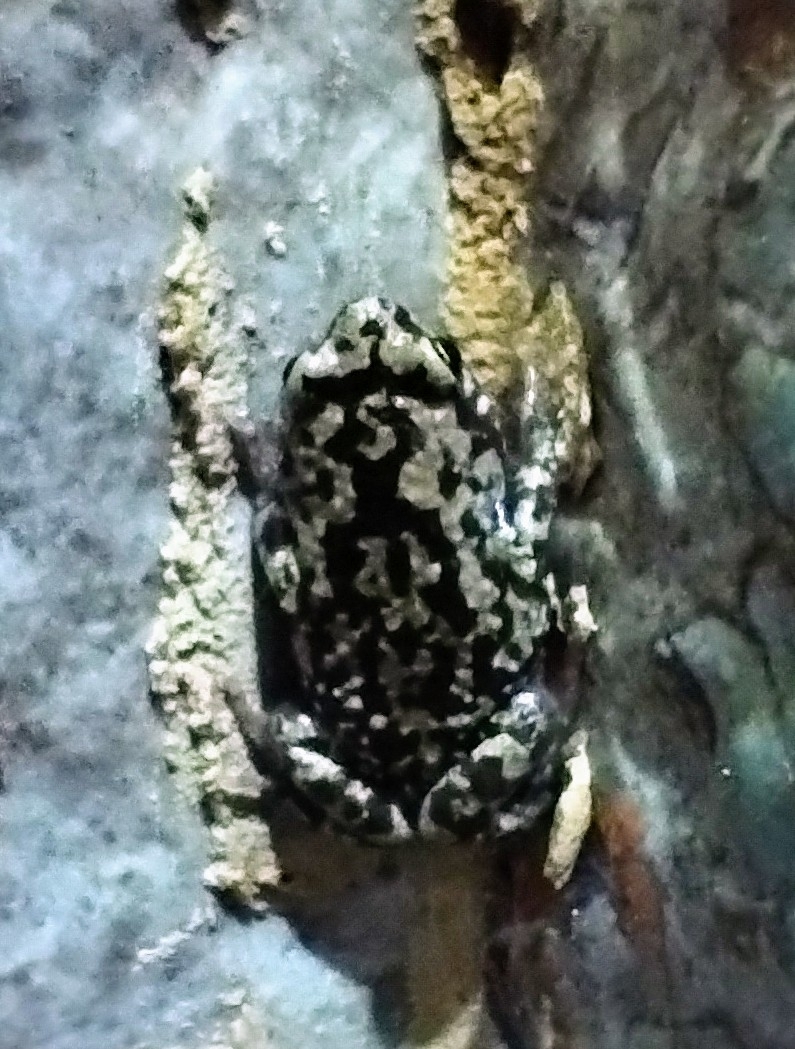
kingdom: Animalia
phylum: Chordata
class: Amphibia
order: Anura
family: Microhylidae
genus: Uperodon
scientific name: Uperodon variegatus
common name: Eluru dot frog
